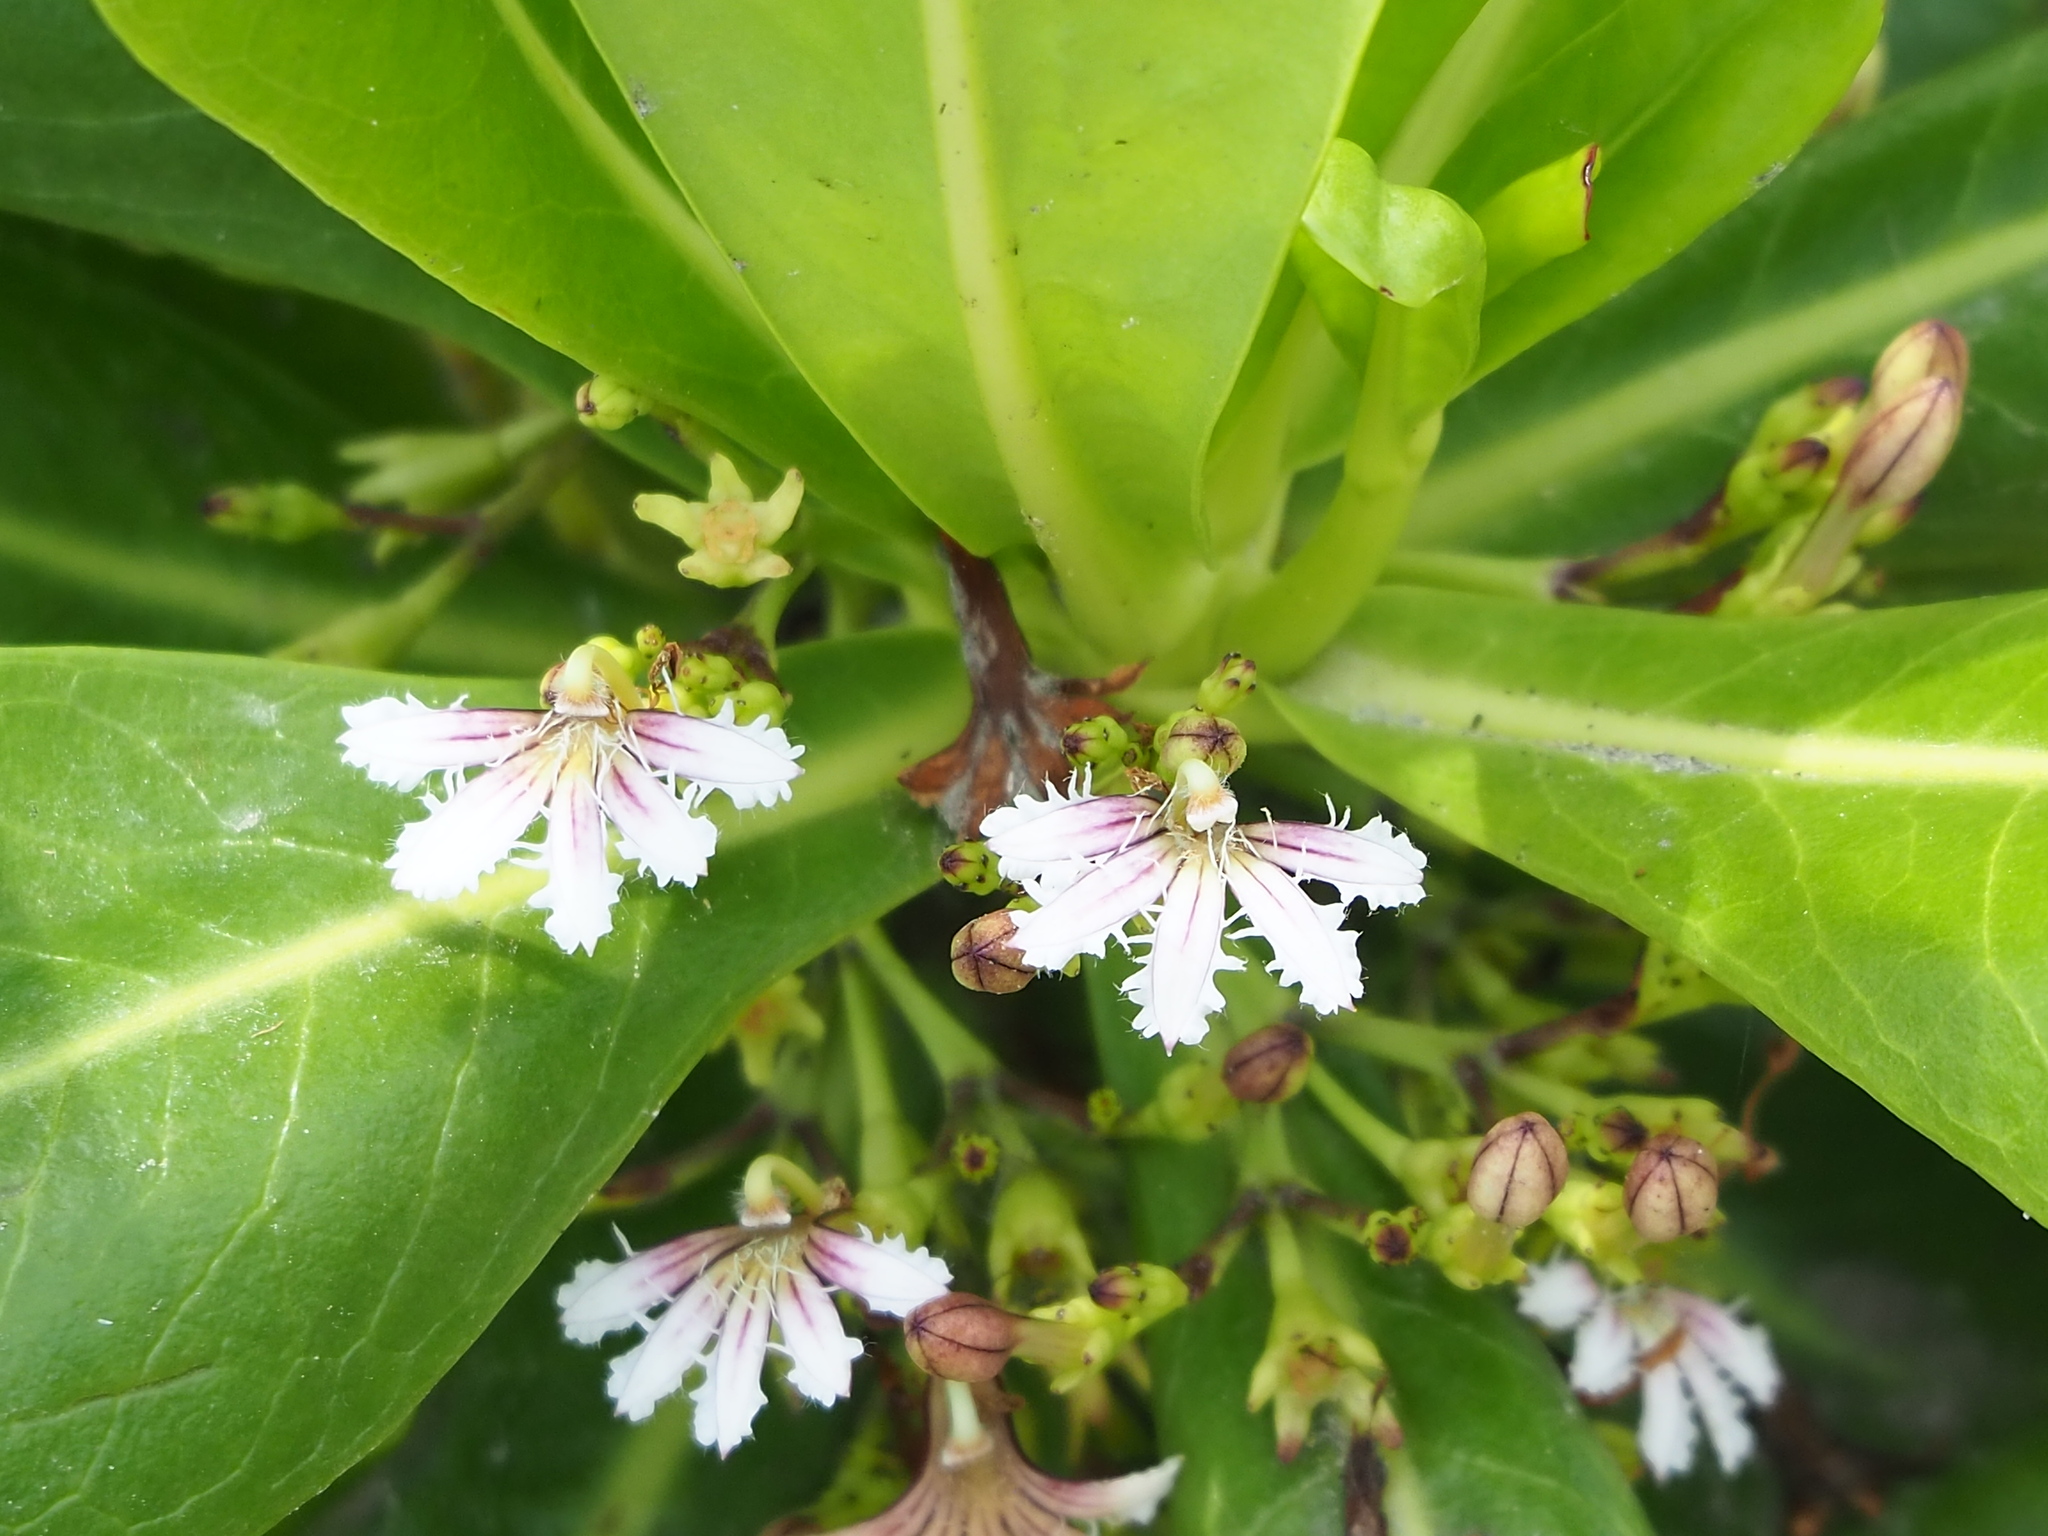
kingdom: Plantae
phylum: Tracheophyta
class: Magnoliopsida
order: Asterales
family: Goodeniaceae
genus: Scaevola
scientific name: Scaevola taccada
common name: Sea lettucetree
